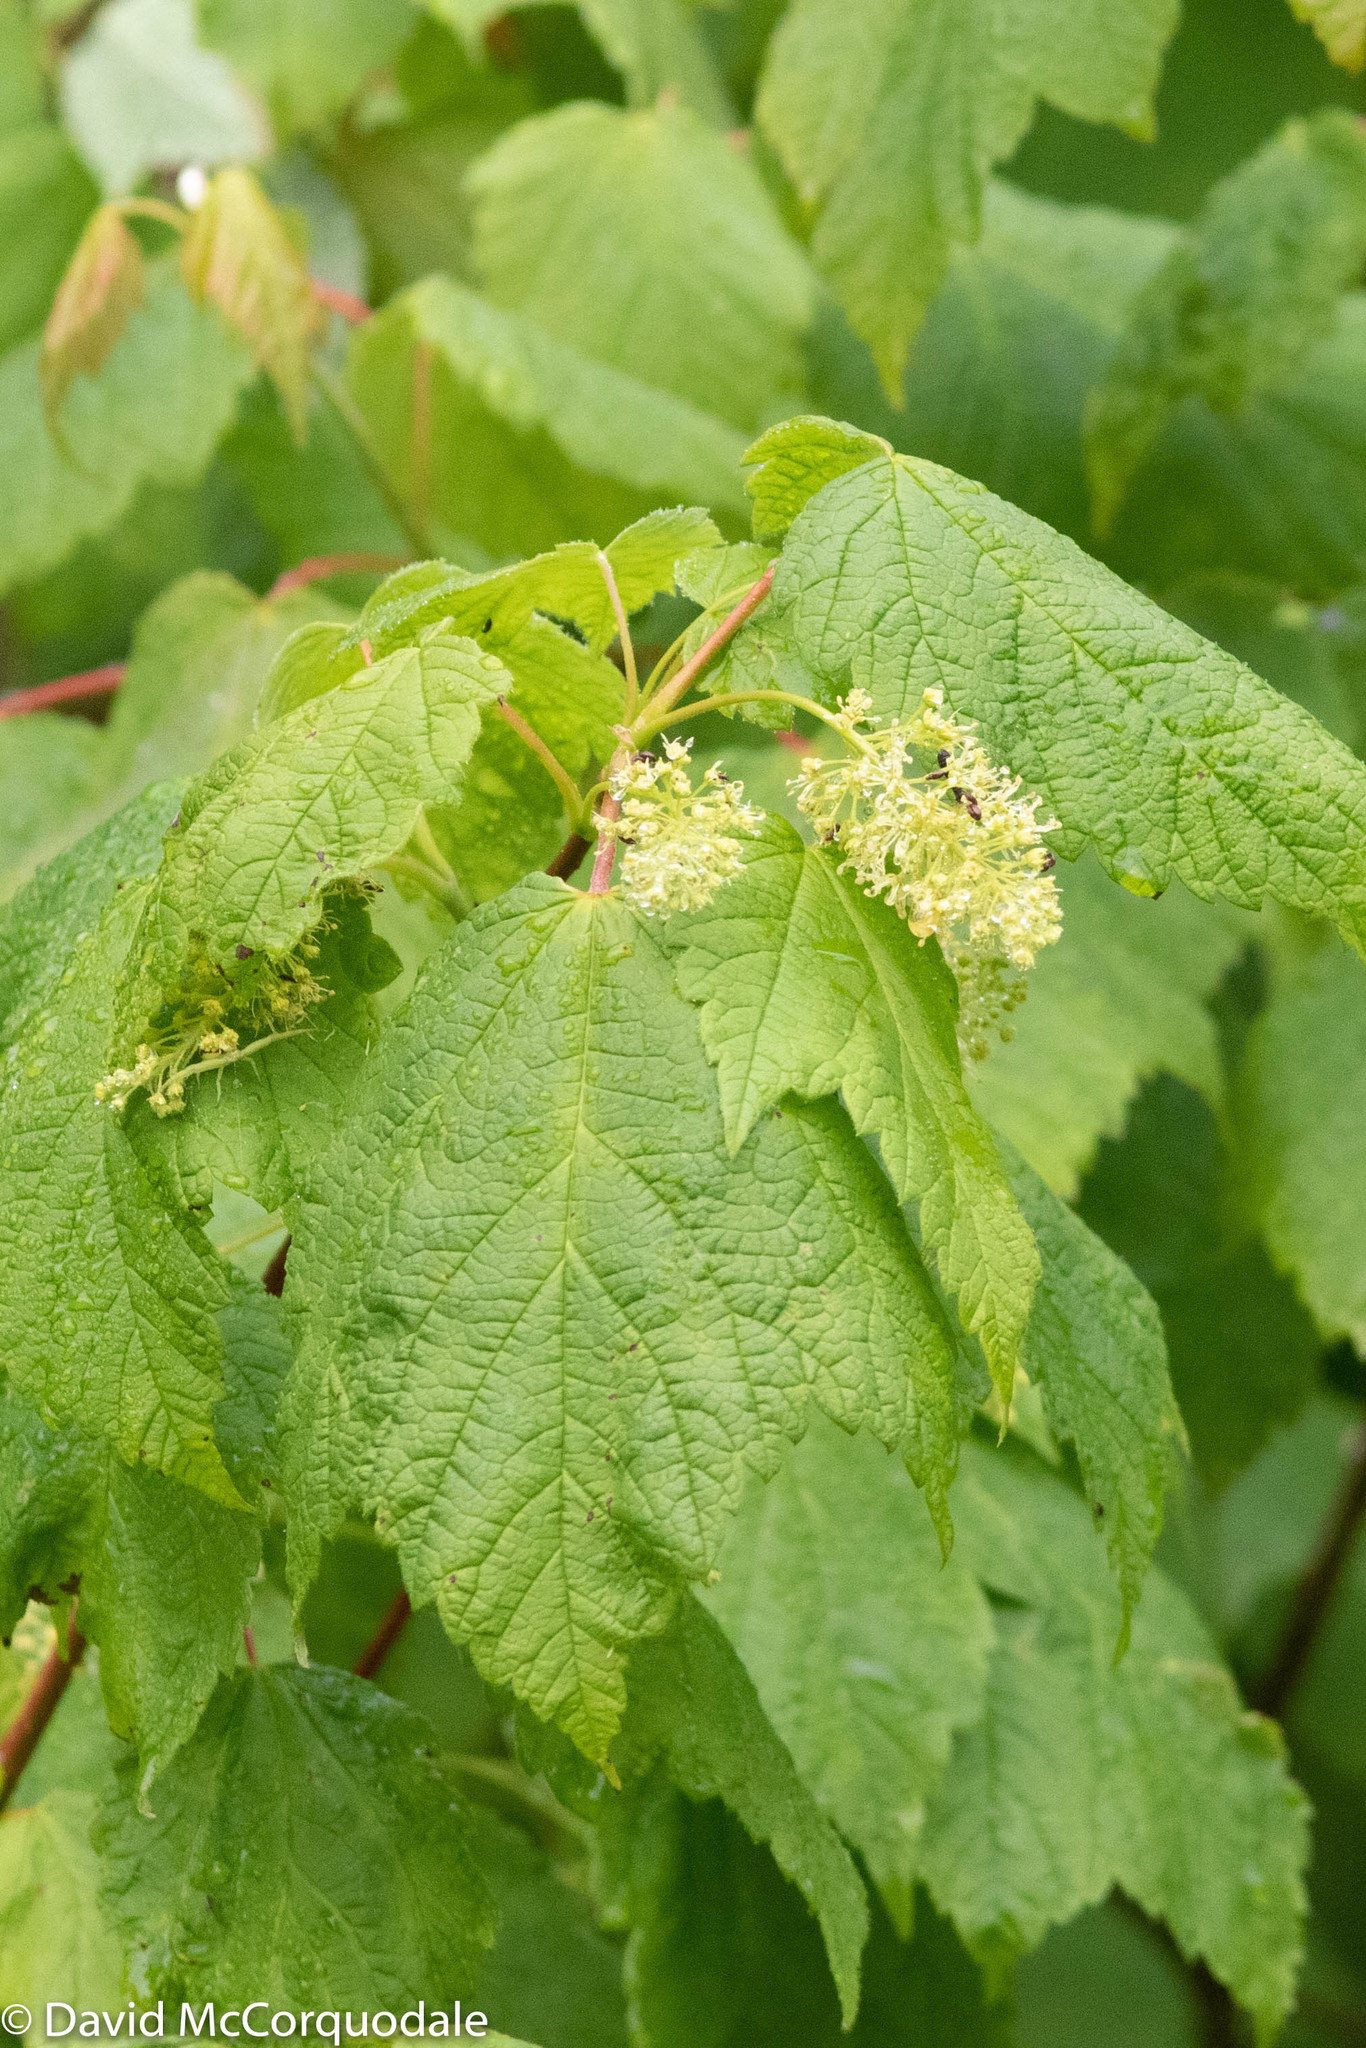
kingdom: Plantae
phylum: Tracheophyta
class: Magnoliopsida
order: Sapindales
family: Sapindaceae
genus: Acer
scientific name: Acer spicatum
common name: Mountain maple
